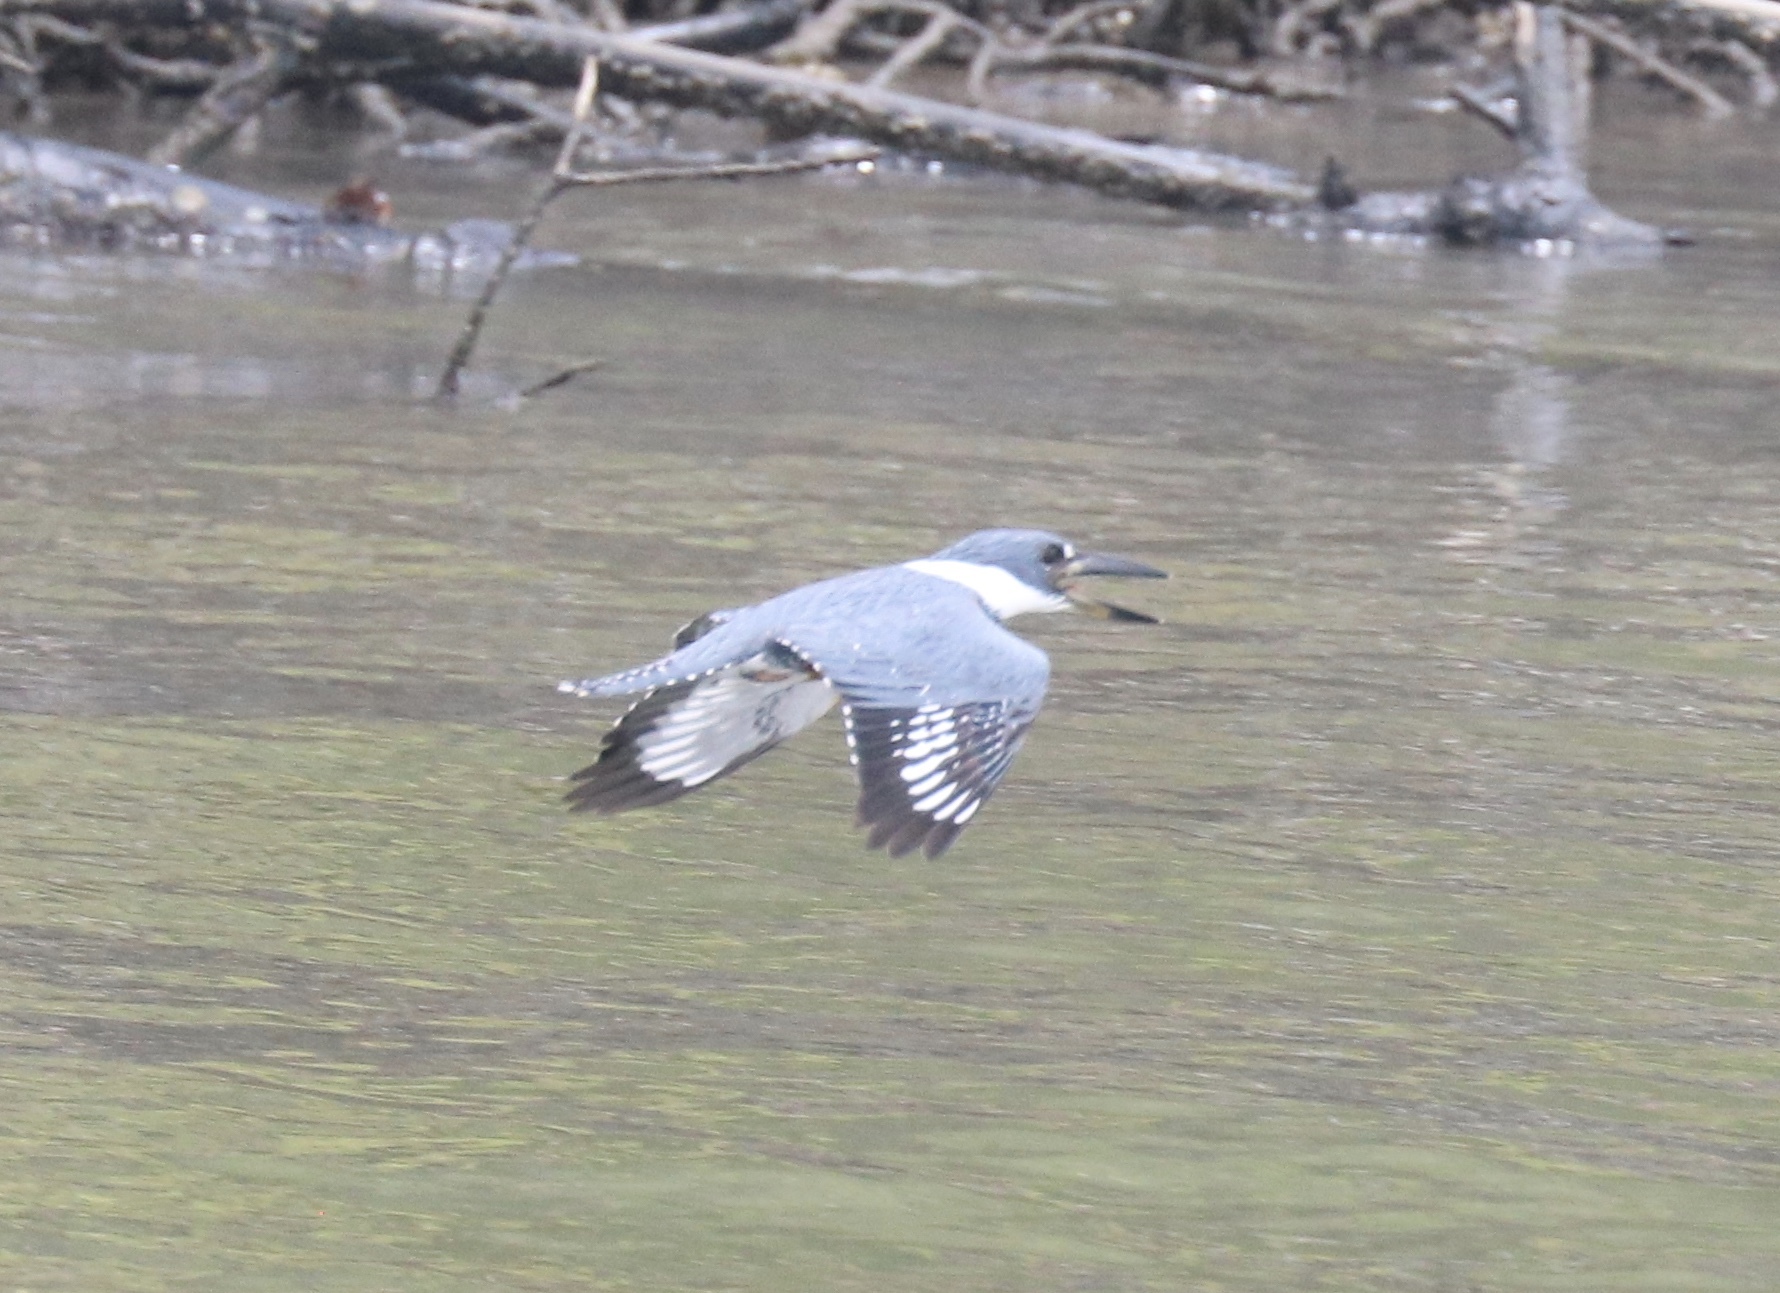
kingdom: Animalia
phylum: Chordata
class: Aves
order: Coraciiformes
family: Alcedinidae
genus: Megaceryle
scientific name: Megaceryle torquata
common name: Ringed kingfisher
